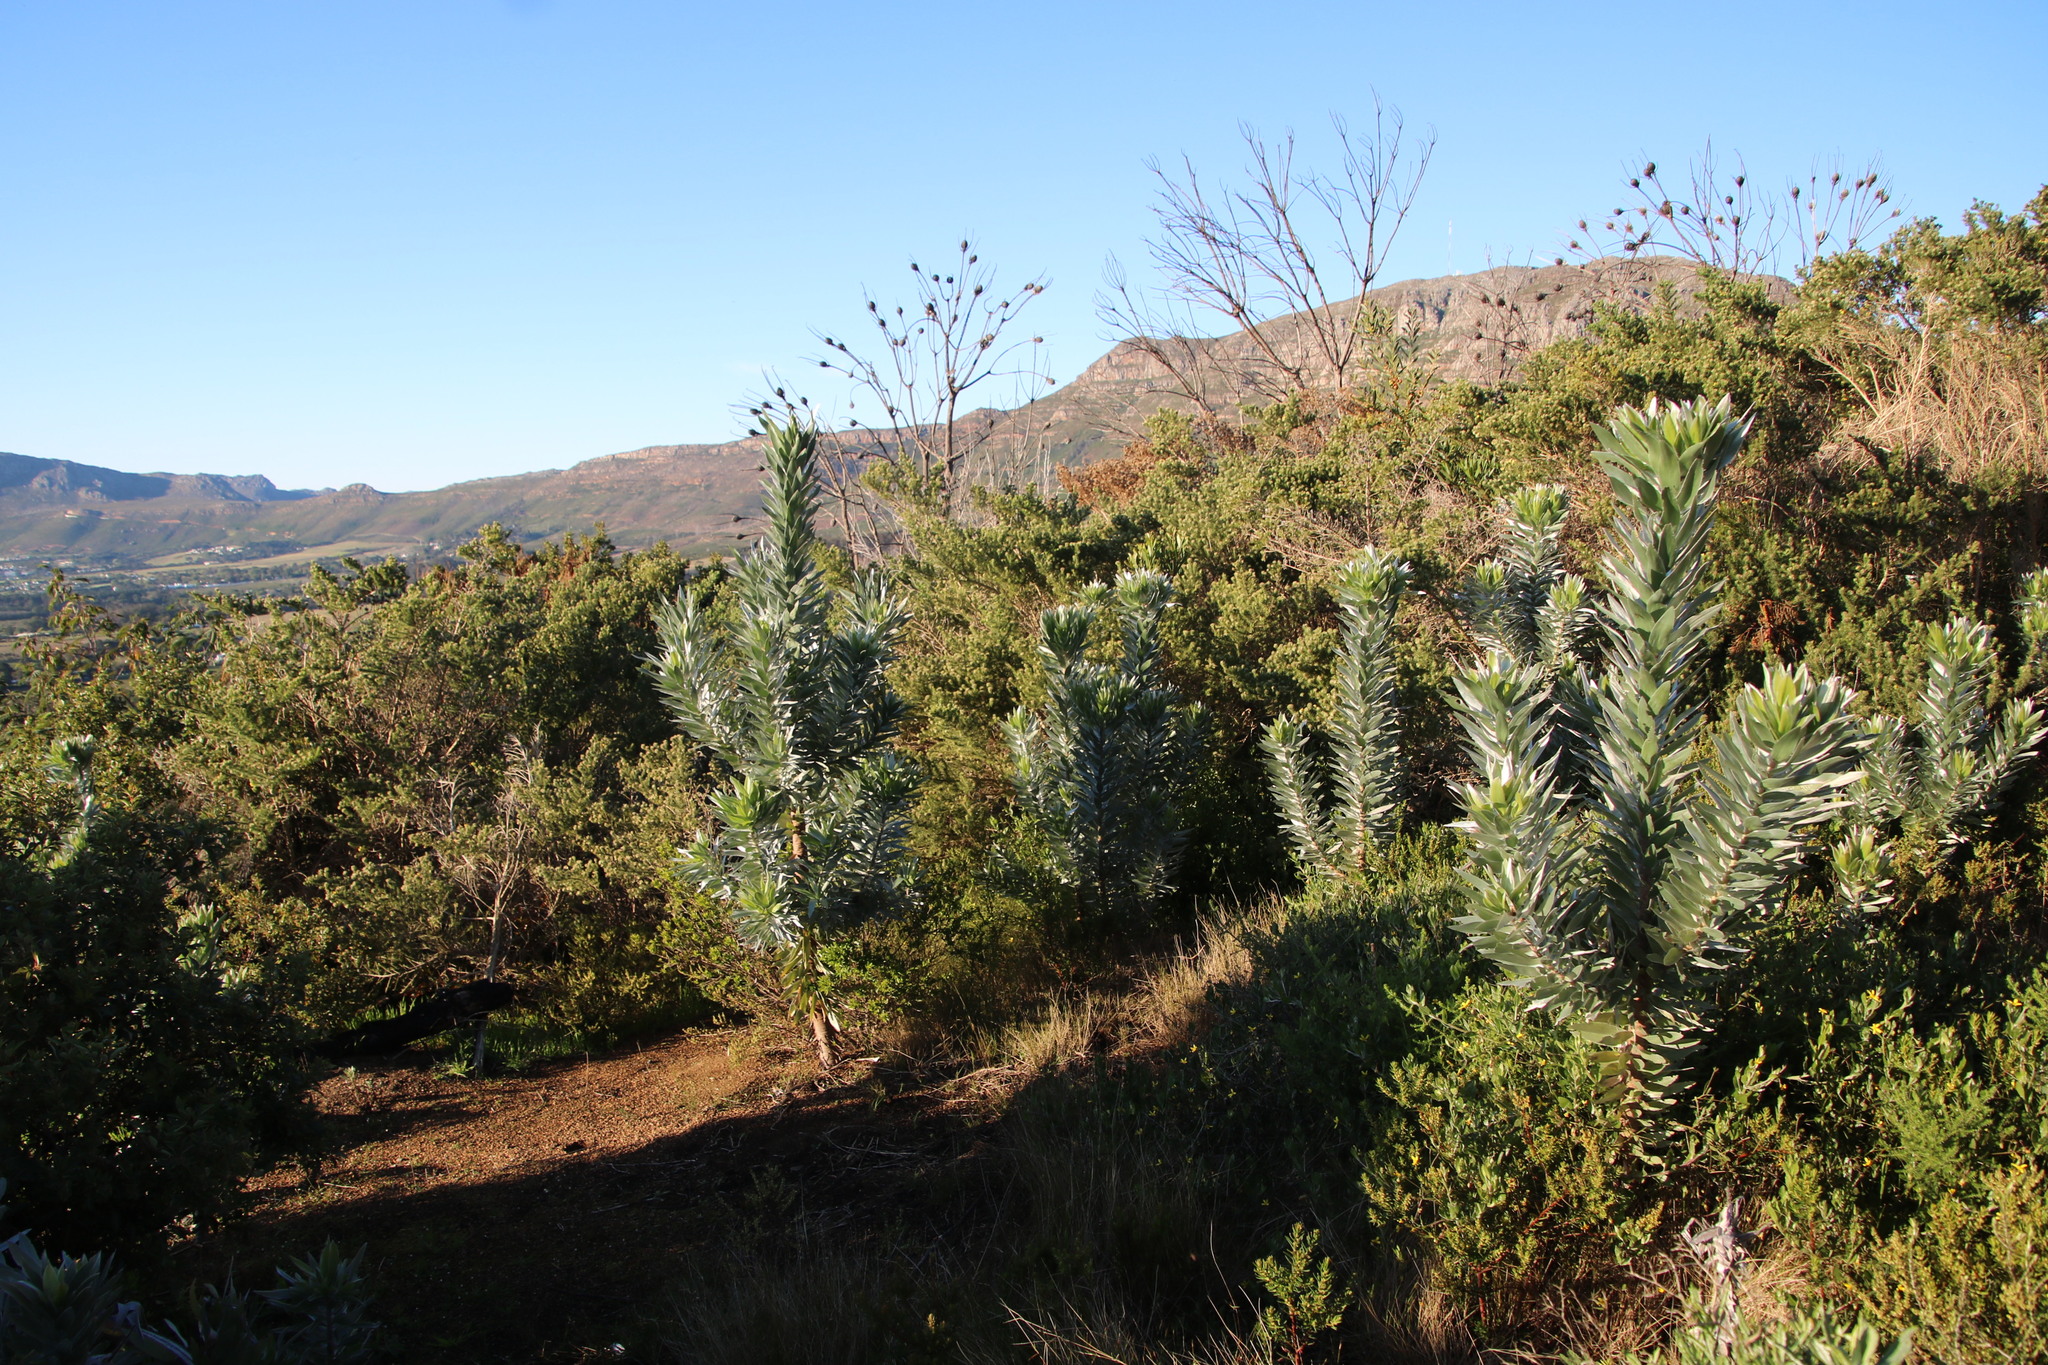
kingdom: Plantae
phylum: Tracheophyta
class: Magnoliopsida
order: Proteales
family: Proteaceae
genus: Leucadendron
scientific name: Leucadendron argenteum
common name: Cape silver tree
